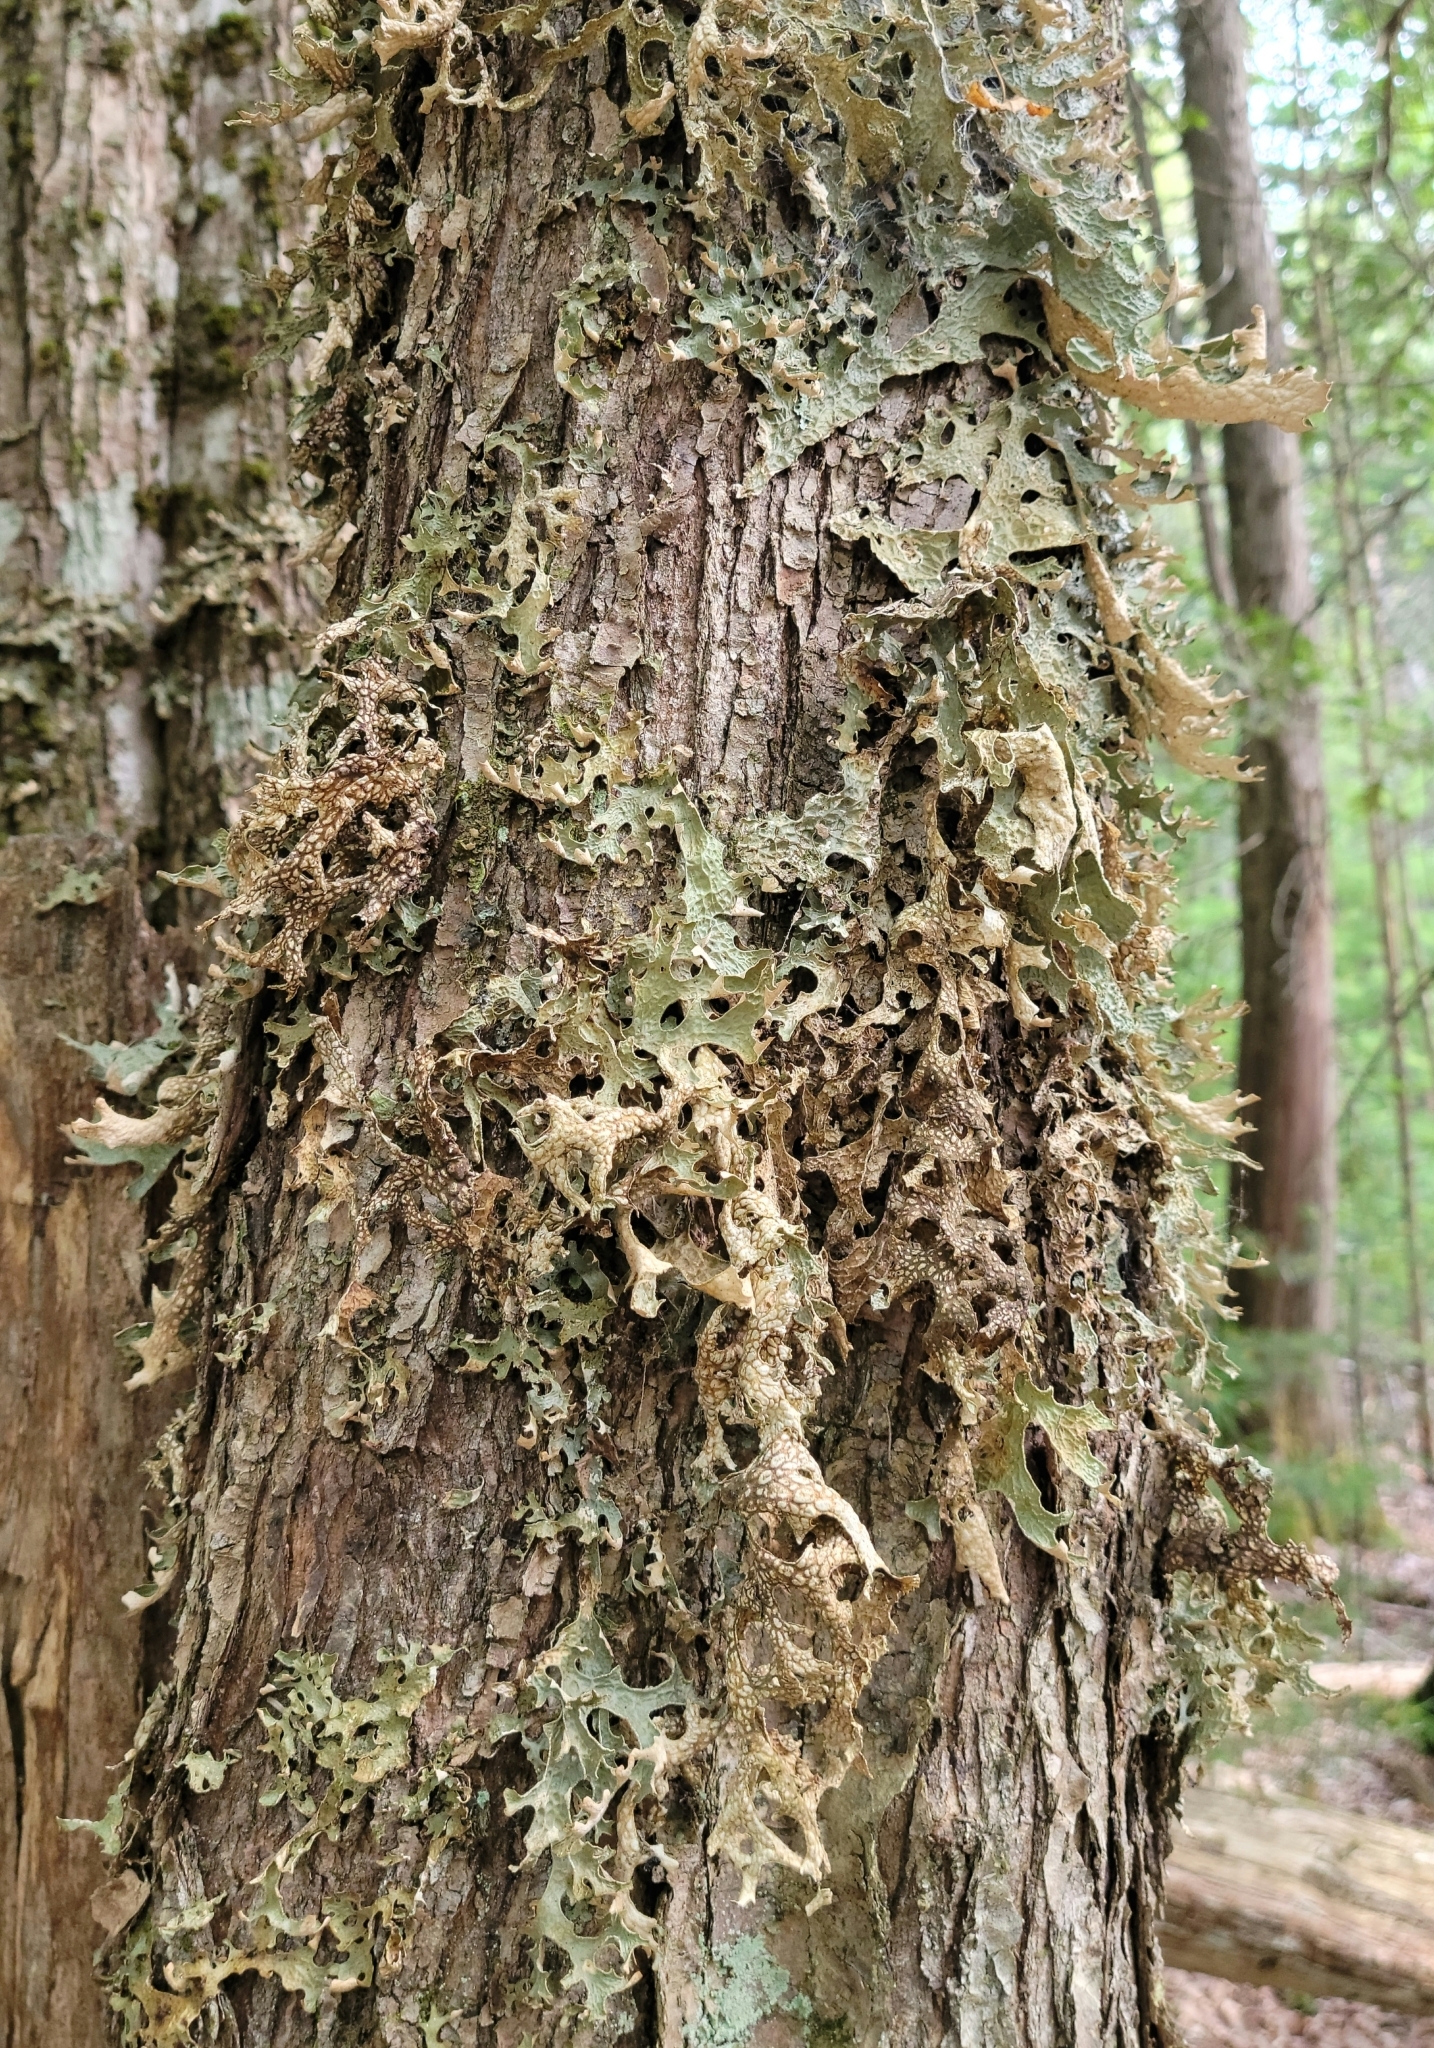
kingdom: Fungi
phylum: Ascomycota
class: Lecanoromycetes
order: Peltigerales
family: Lobariaceae
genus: Lobaria
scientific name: Lobaria pulmonaria
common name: Lungwort
